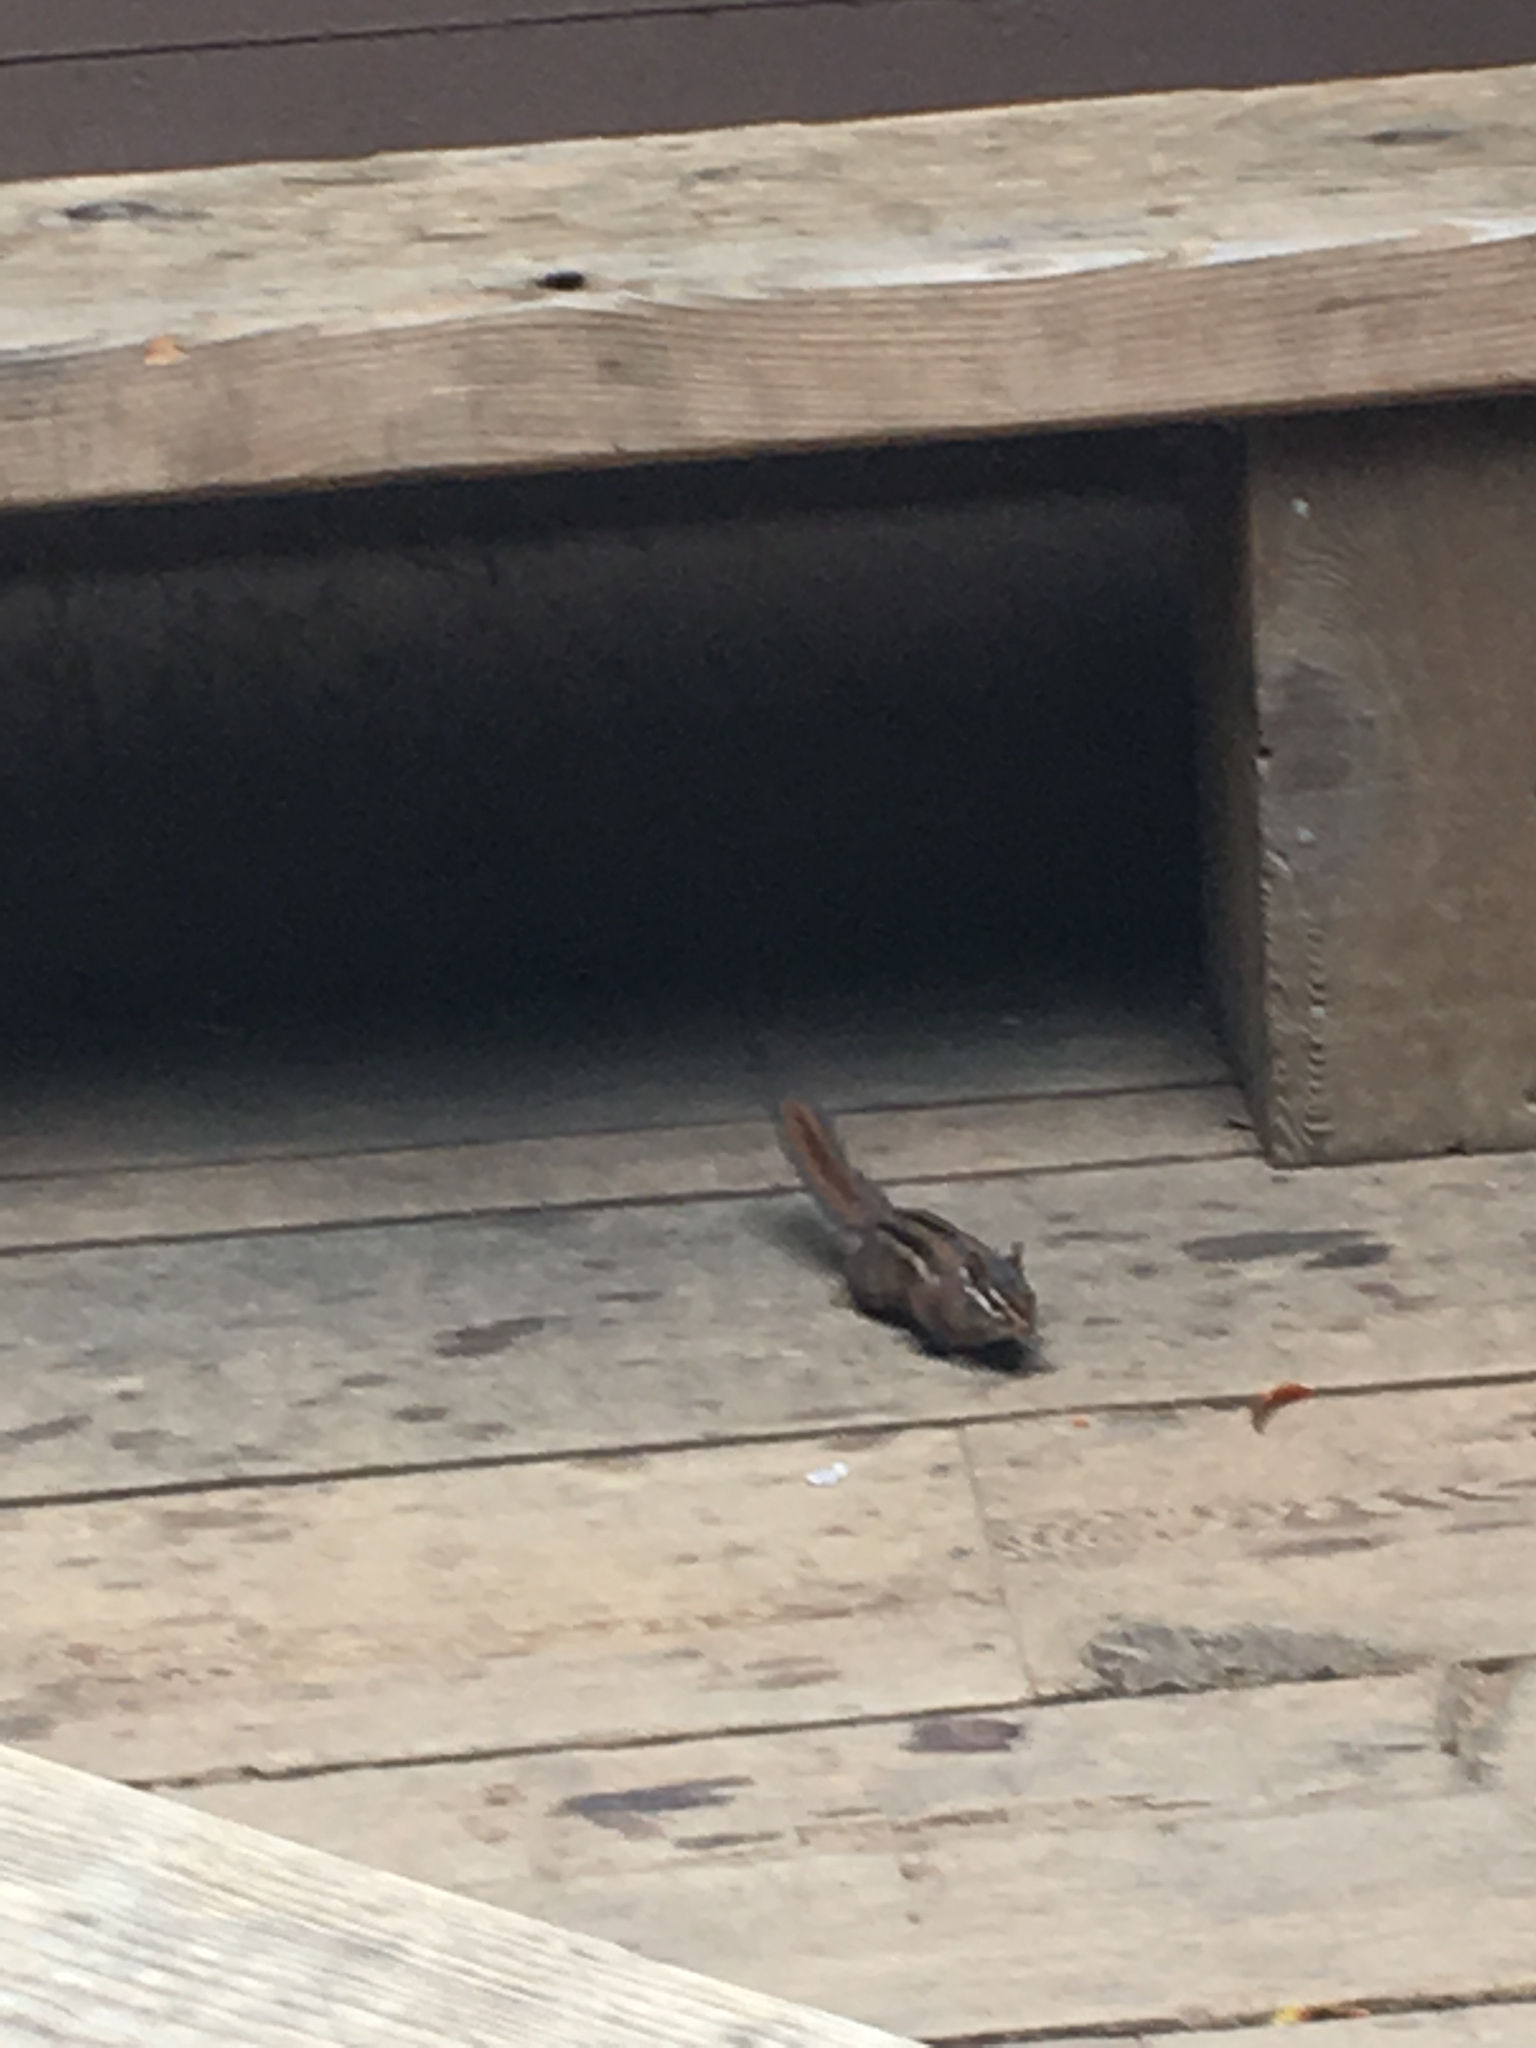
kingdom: Animalia
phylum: Chordata
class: Mammalia
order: Rodentia
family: Sciuridae
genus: Tamias
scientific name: Tamias sonomae
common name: Sonoma chipmunk
